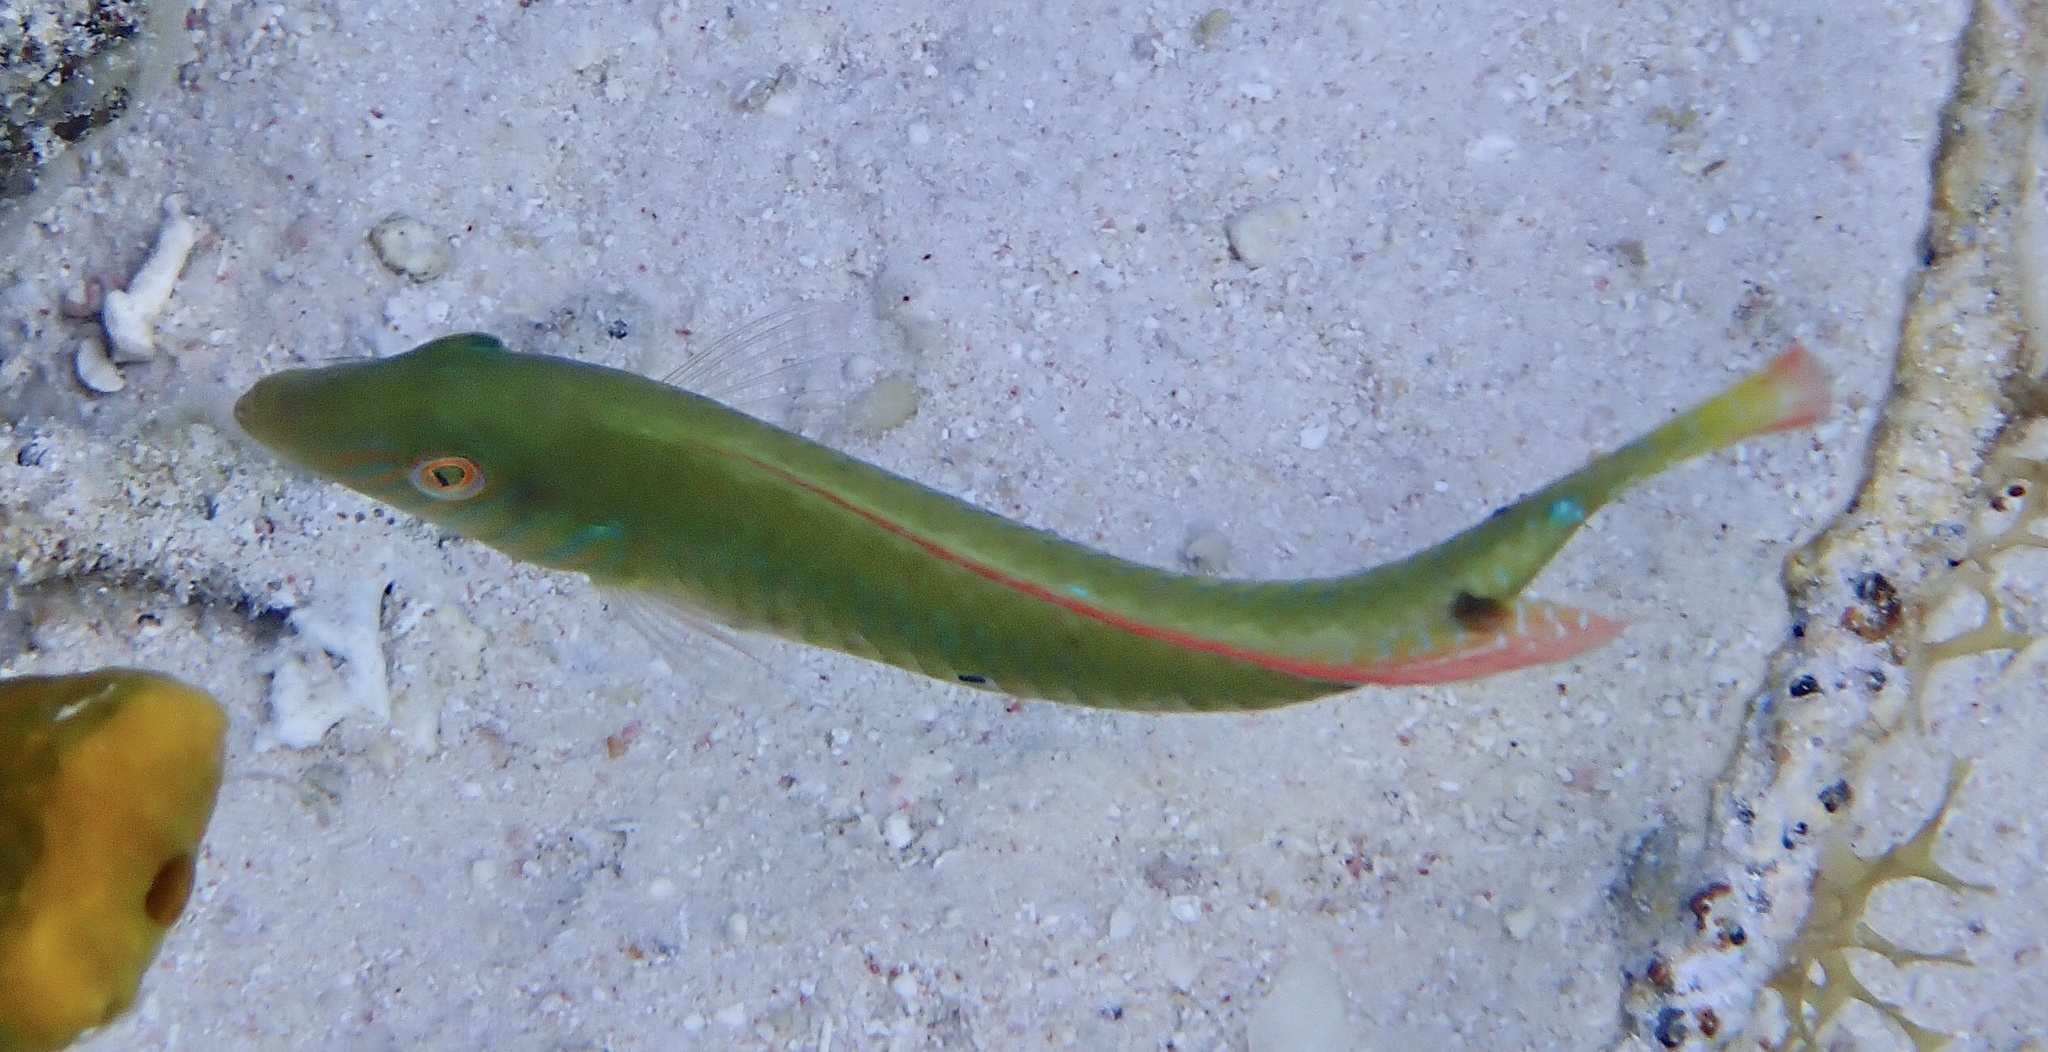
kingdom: Animalia
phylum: Chordata
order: Perciformes
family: Labridae
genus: Xyrichtys
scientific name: Xyrichtys splendens
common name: Green razorfish
